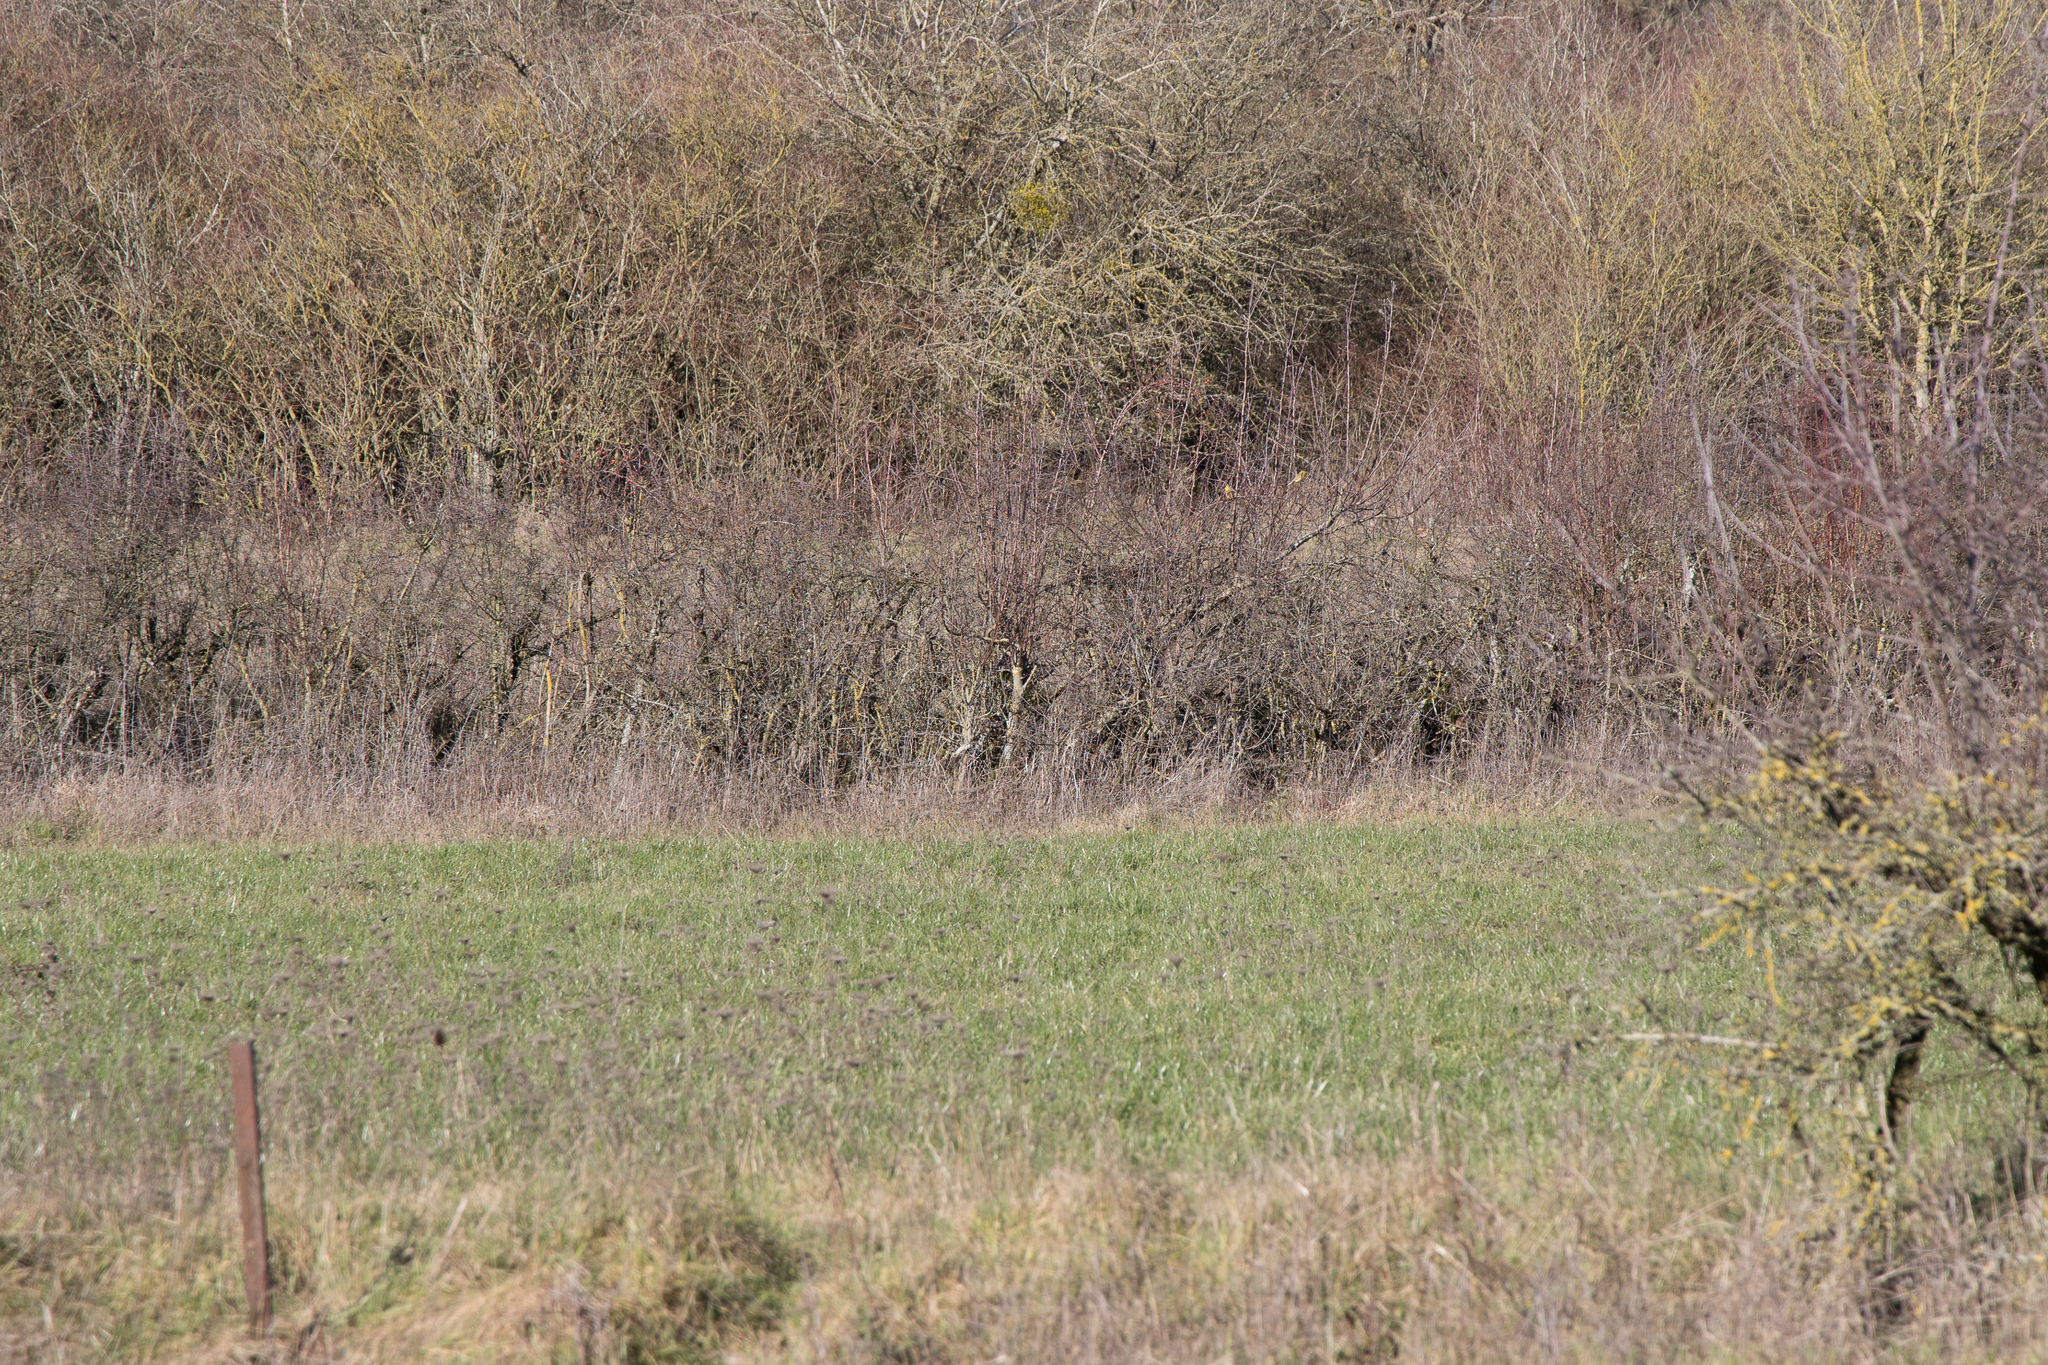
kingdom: Animalia
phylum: Chordata
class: Aves
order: Passeriformes
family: Emberizidae
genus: Emberiza
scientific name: Emberiza citrinella
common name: Yellowhammer
